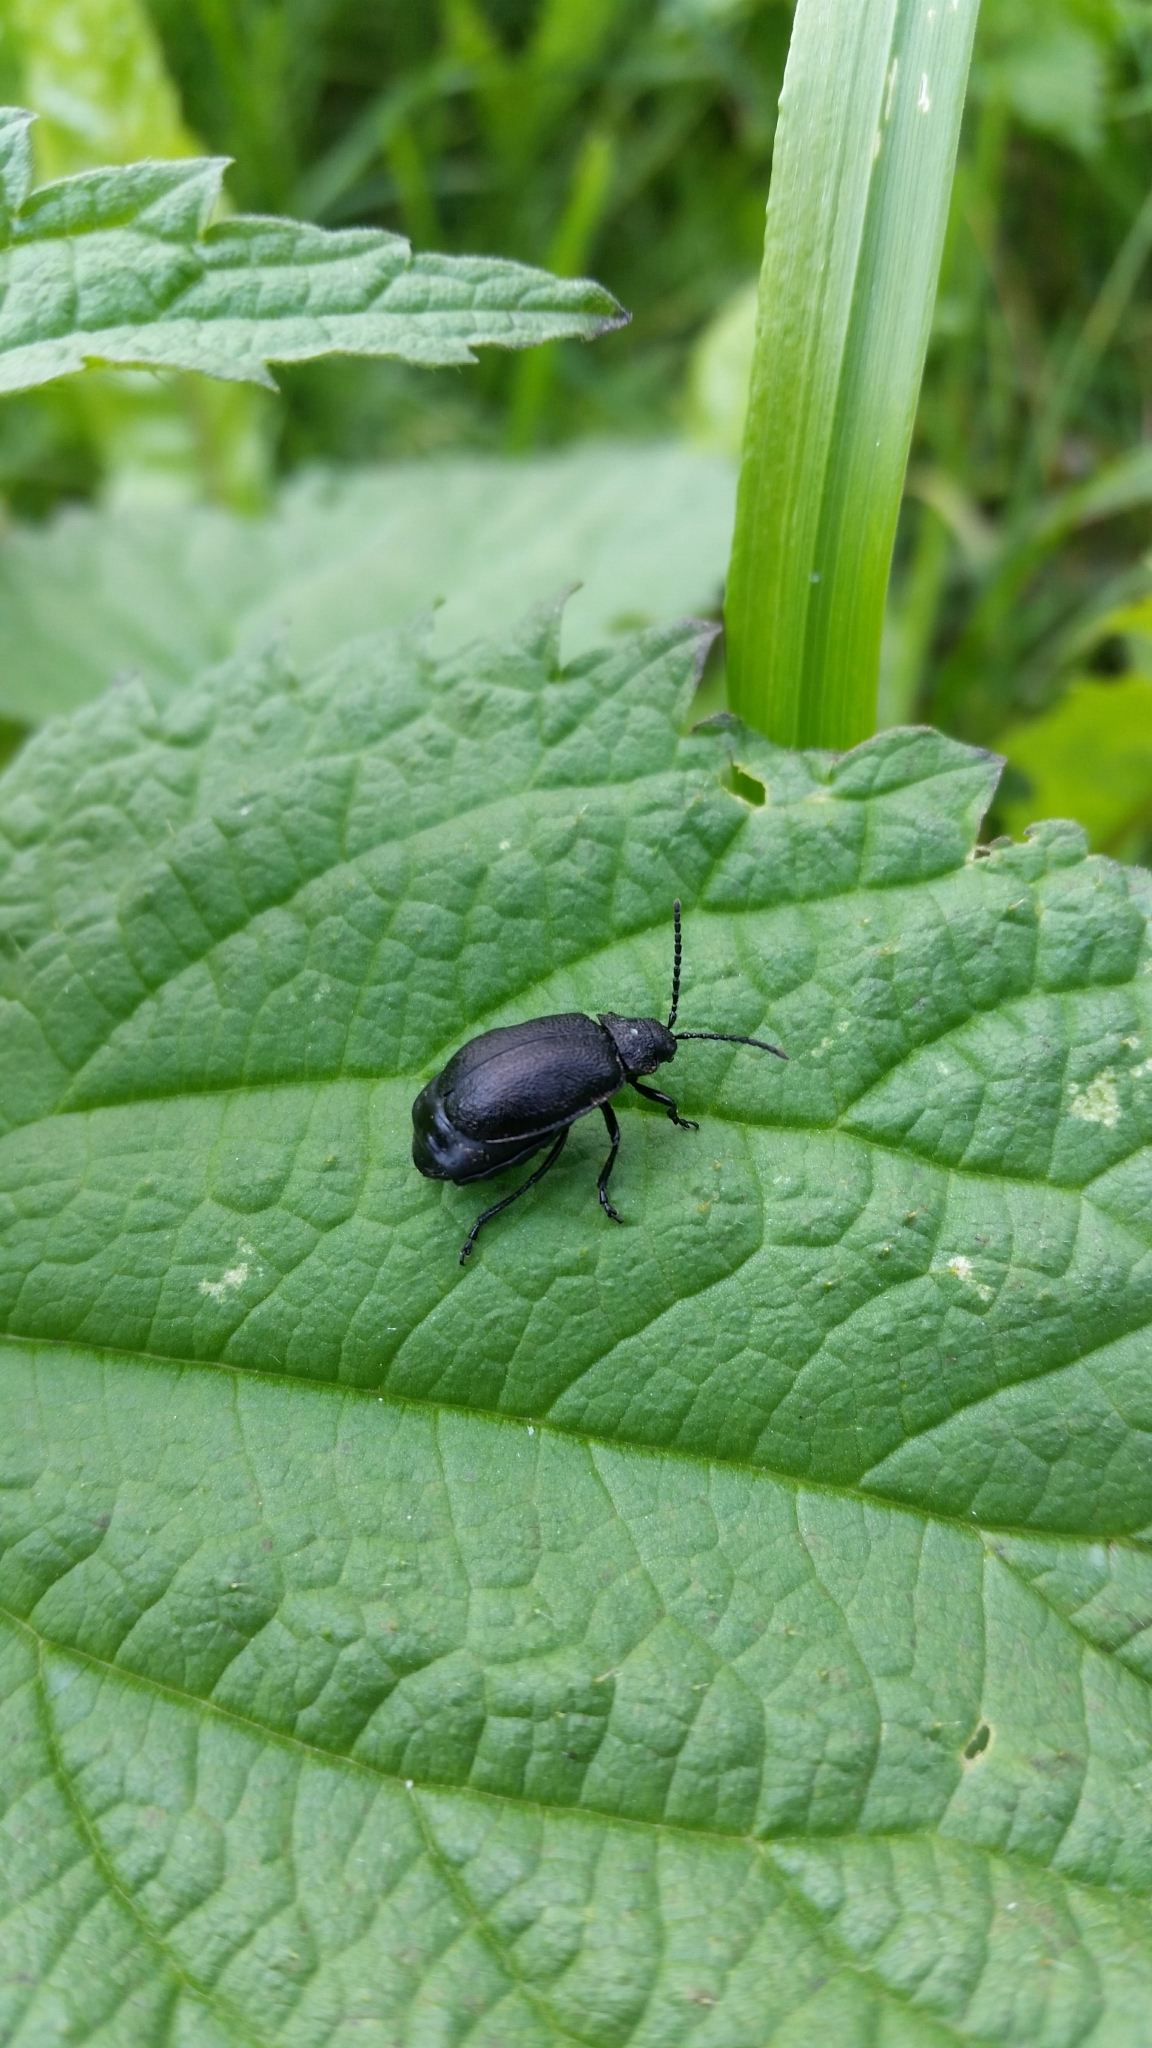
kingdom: Animalia
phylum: Arthropoda
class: Insecta
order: Coleoptera
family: Chrysomelidae
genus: Galeruca
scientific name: Galeruca tanaceti
